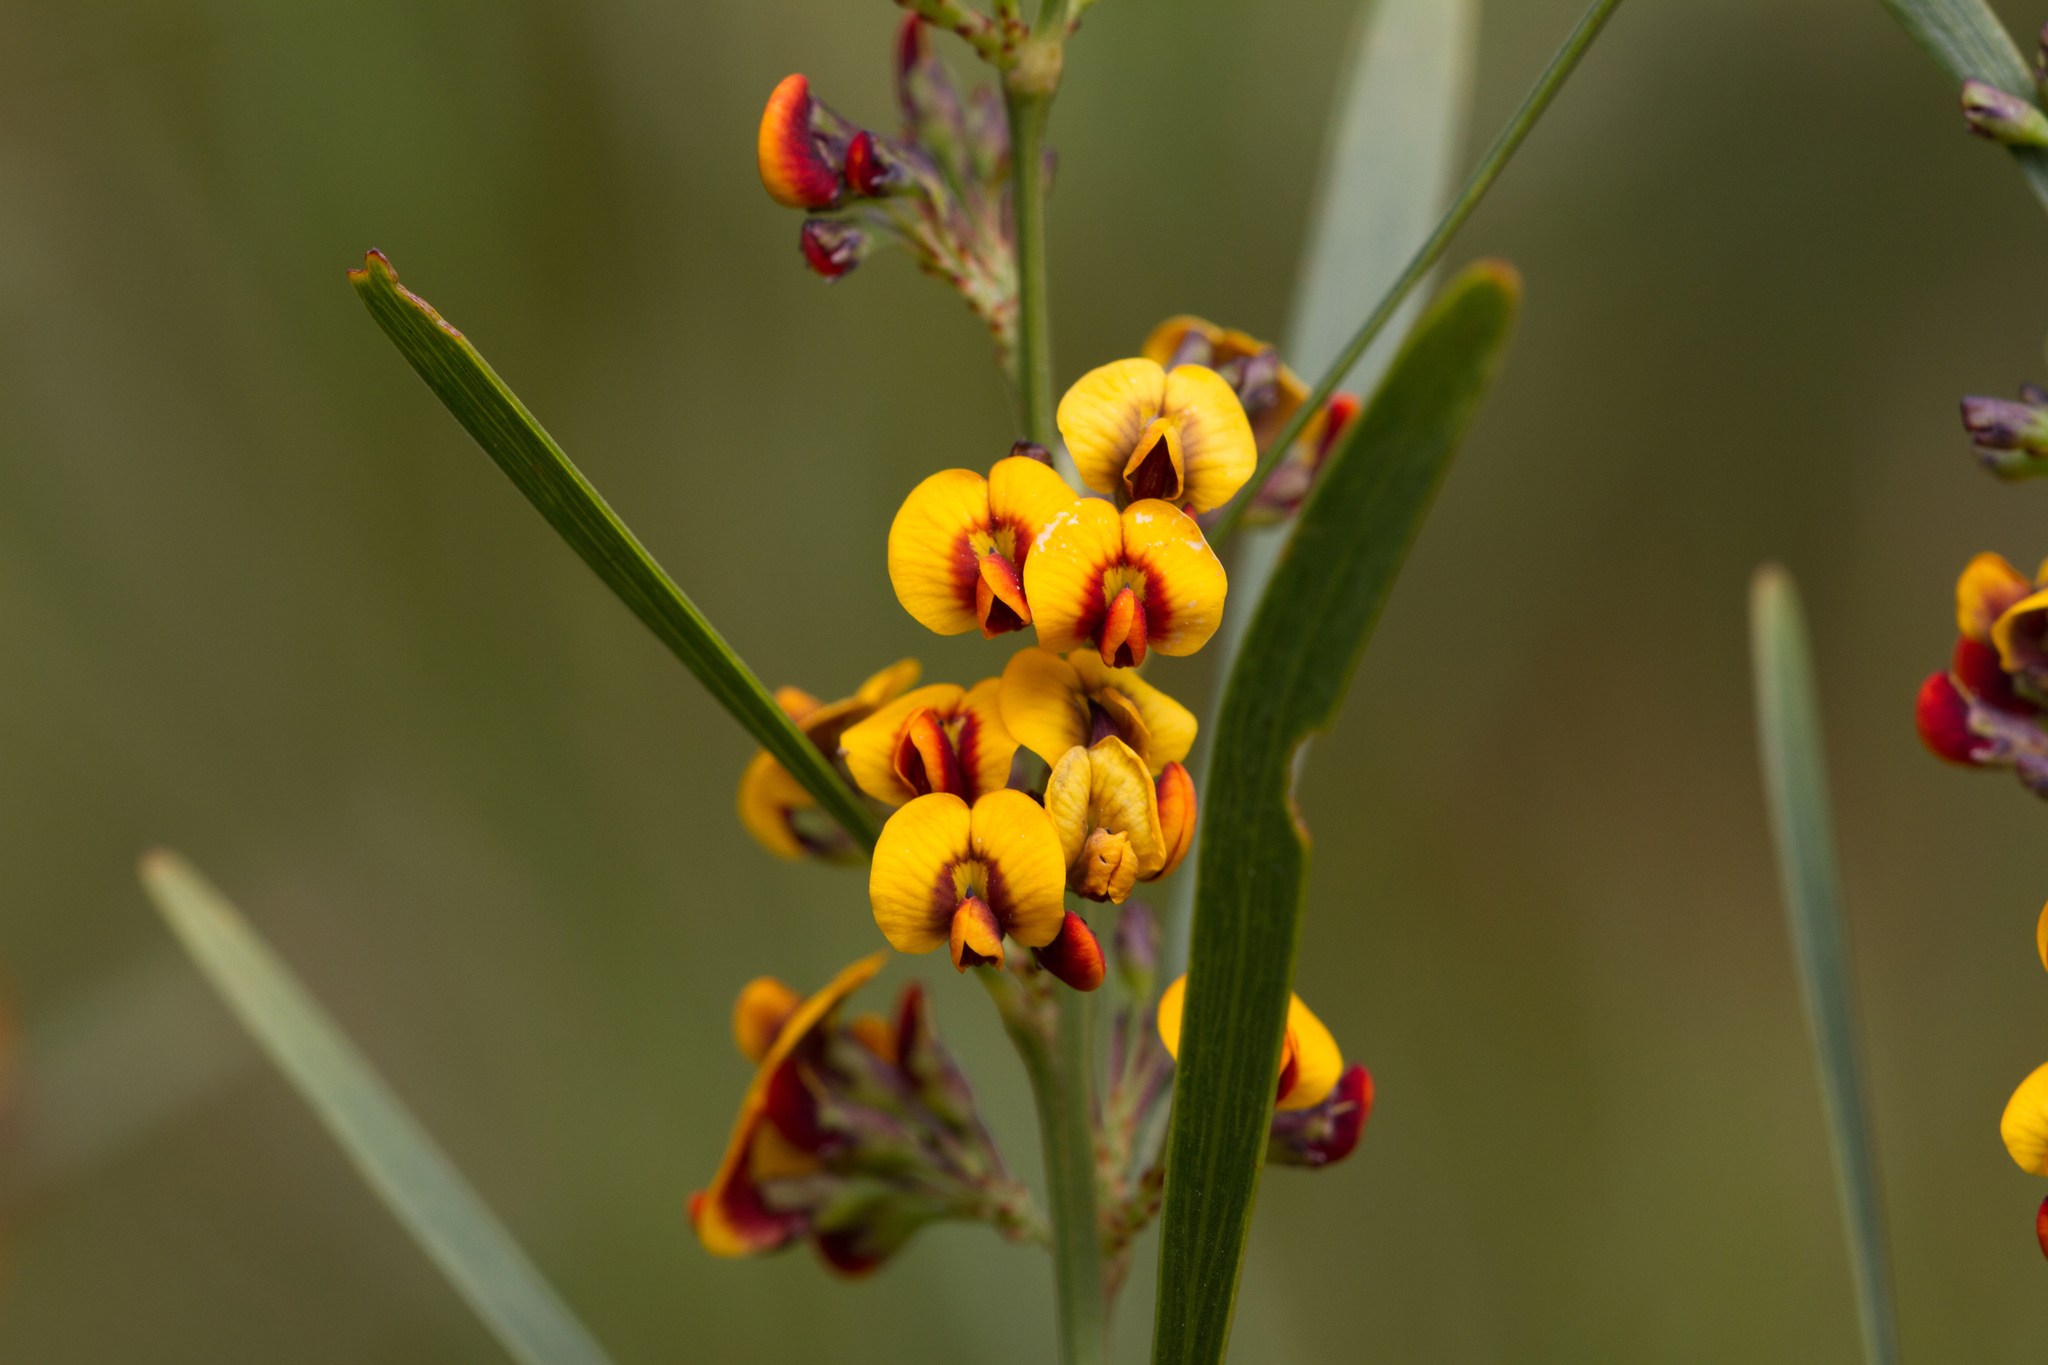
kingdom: Plantae
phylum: Tracheophyta
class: Magnoliopsida
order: Fabales
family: Fabaceae
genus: Daviesia
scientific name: Daviesia leptophylla
